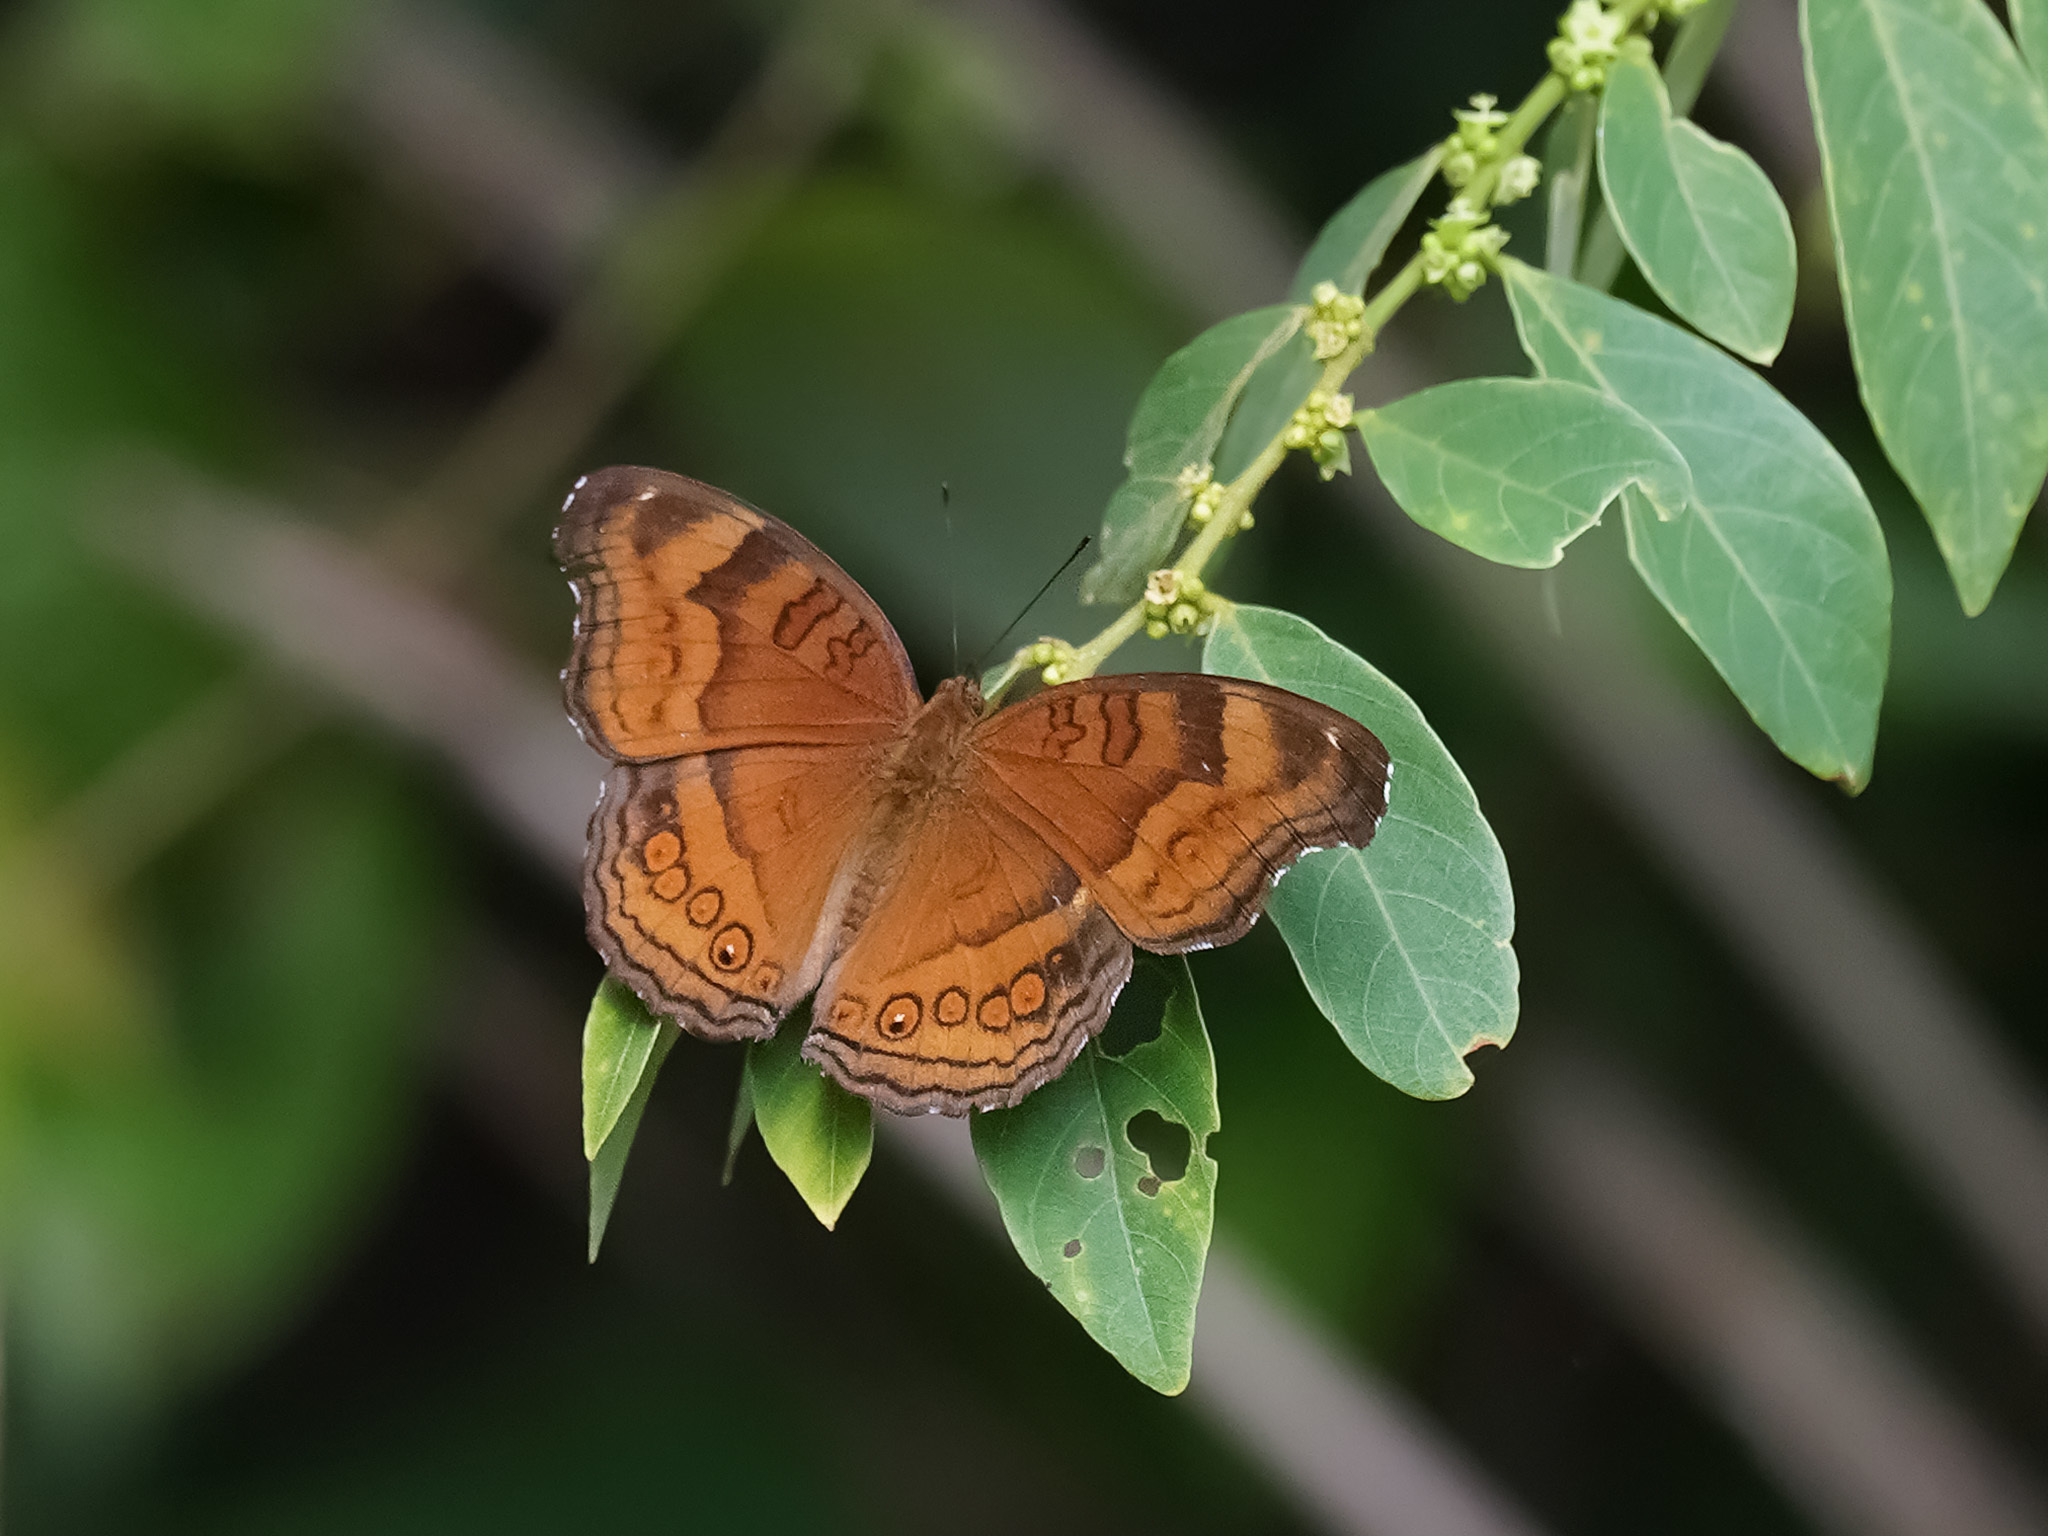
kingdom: Animalia
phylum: Arthropoda
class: Insecta
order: Lepidoptera
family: Nymphalidae
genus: Junonia
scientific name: Junonia hedonia
